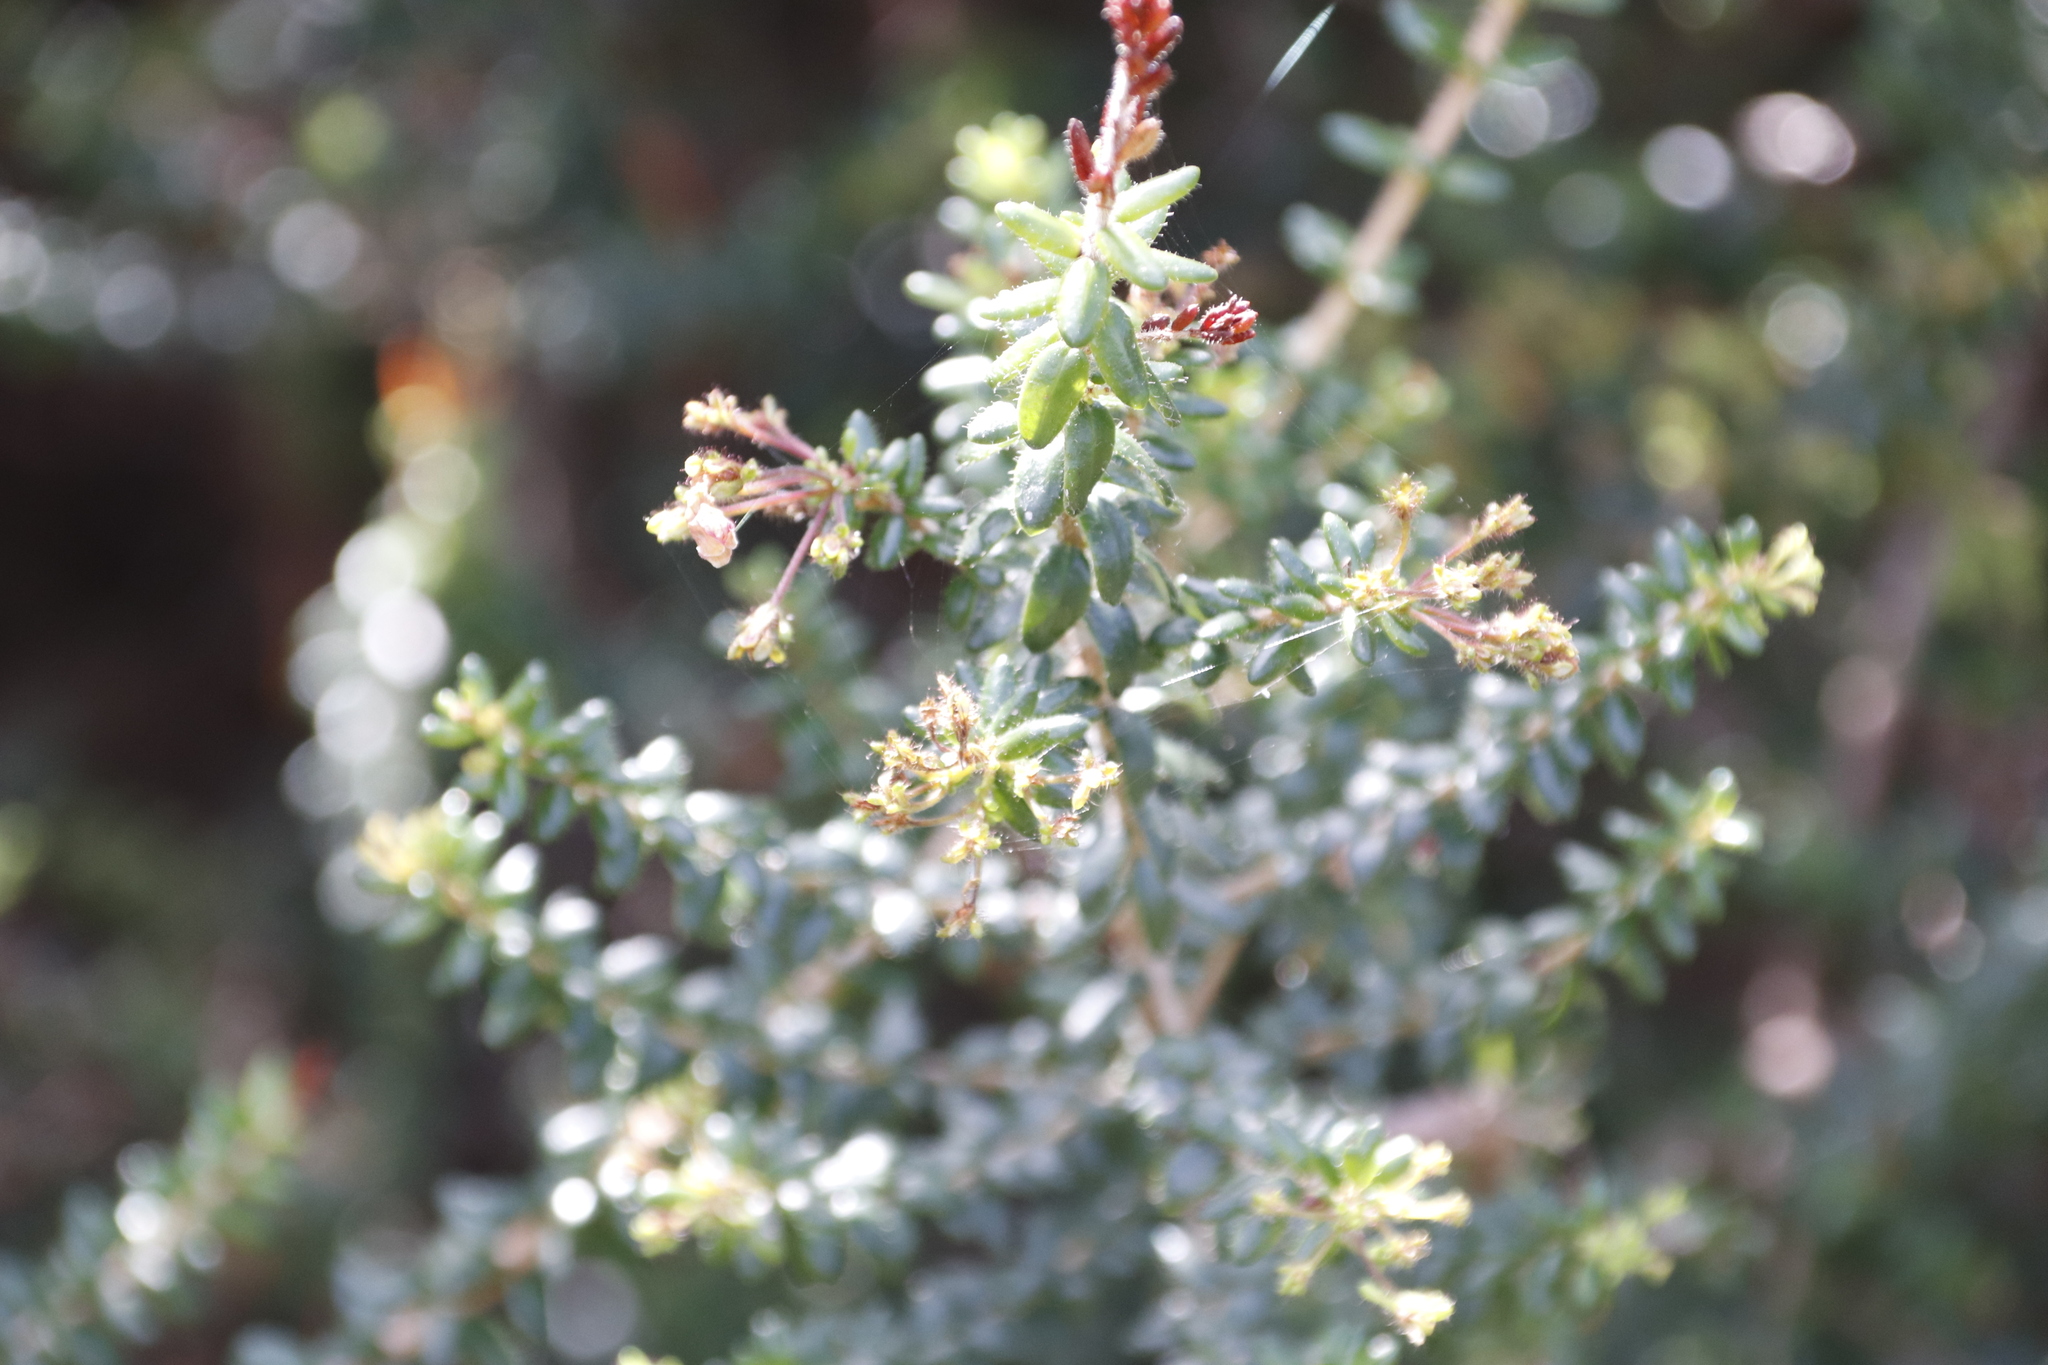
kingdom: Plantae
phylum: Tracheophyta
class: Magnoliopsida
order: Sapindales
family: Rutaceae
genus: Agathosma
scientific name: Agathosma ovata
